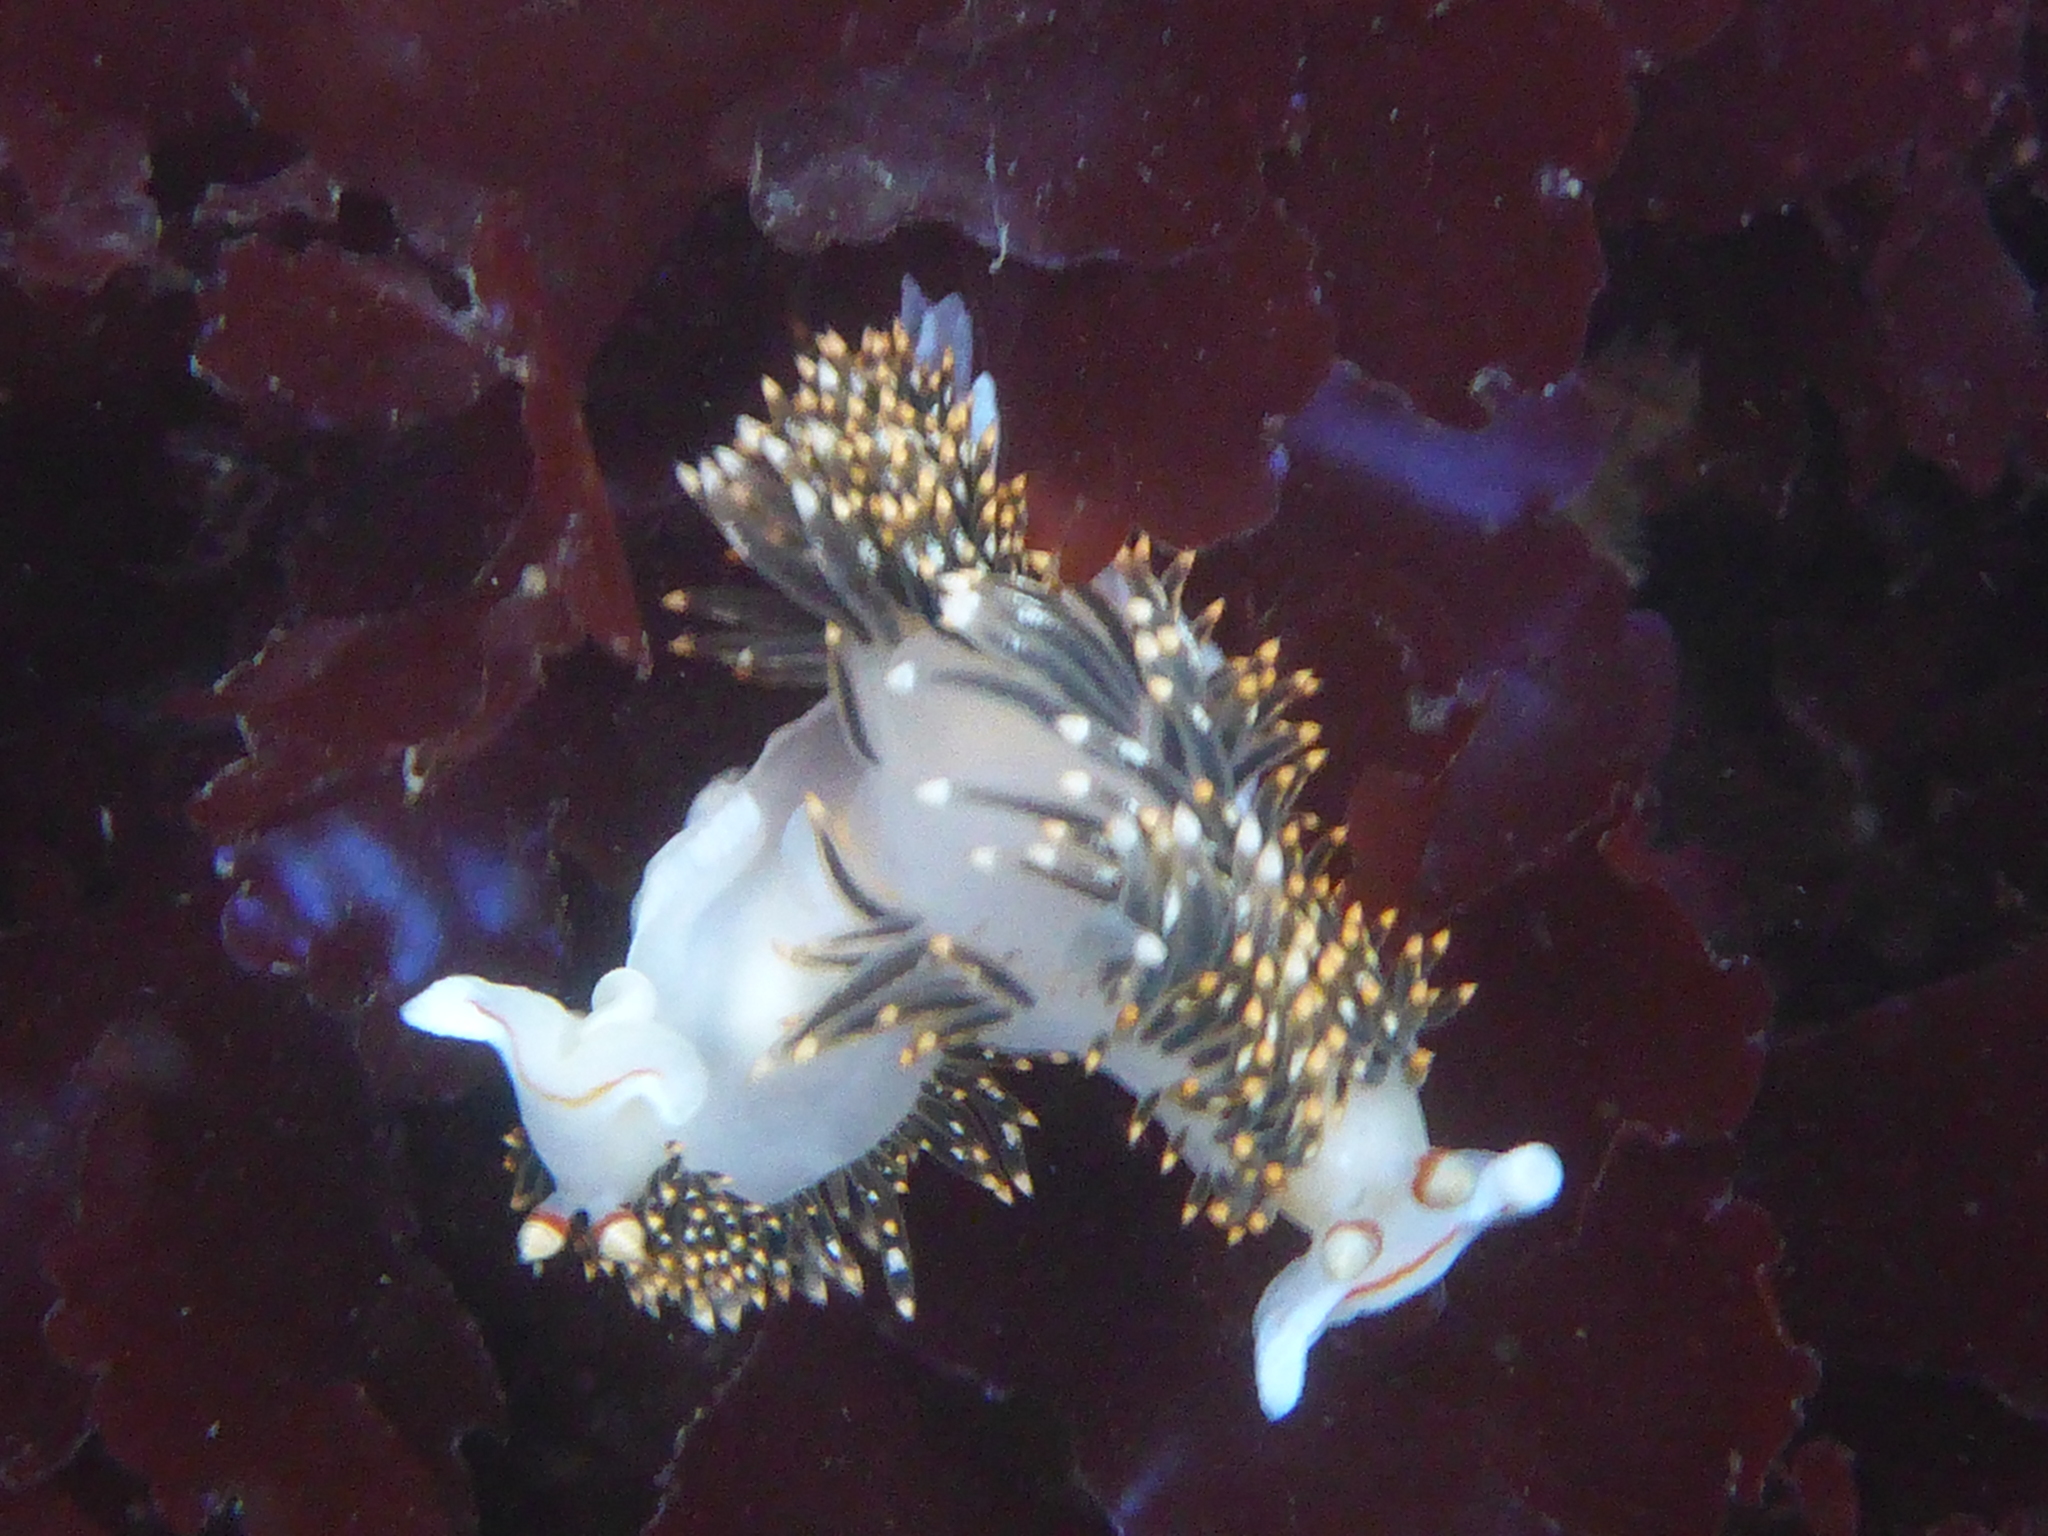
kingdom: Animalia
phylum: Mollusca
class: Gastropoda
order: Nudibranchia
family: Facelinidae
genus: Phidiana
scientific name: Phidiana hiltoni
